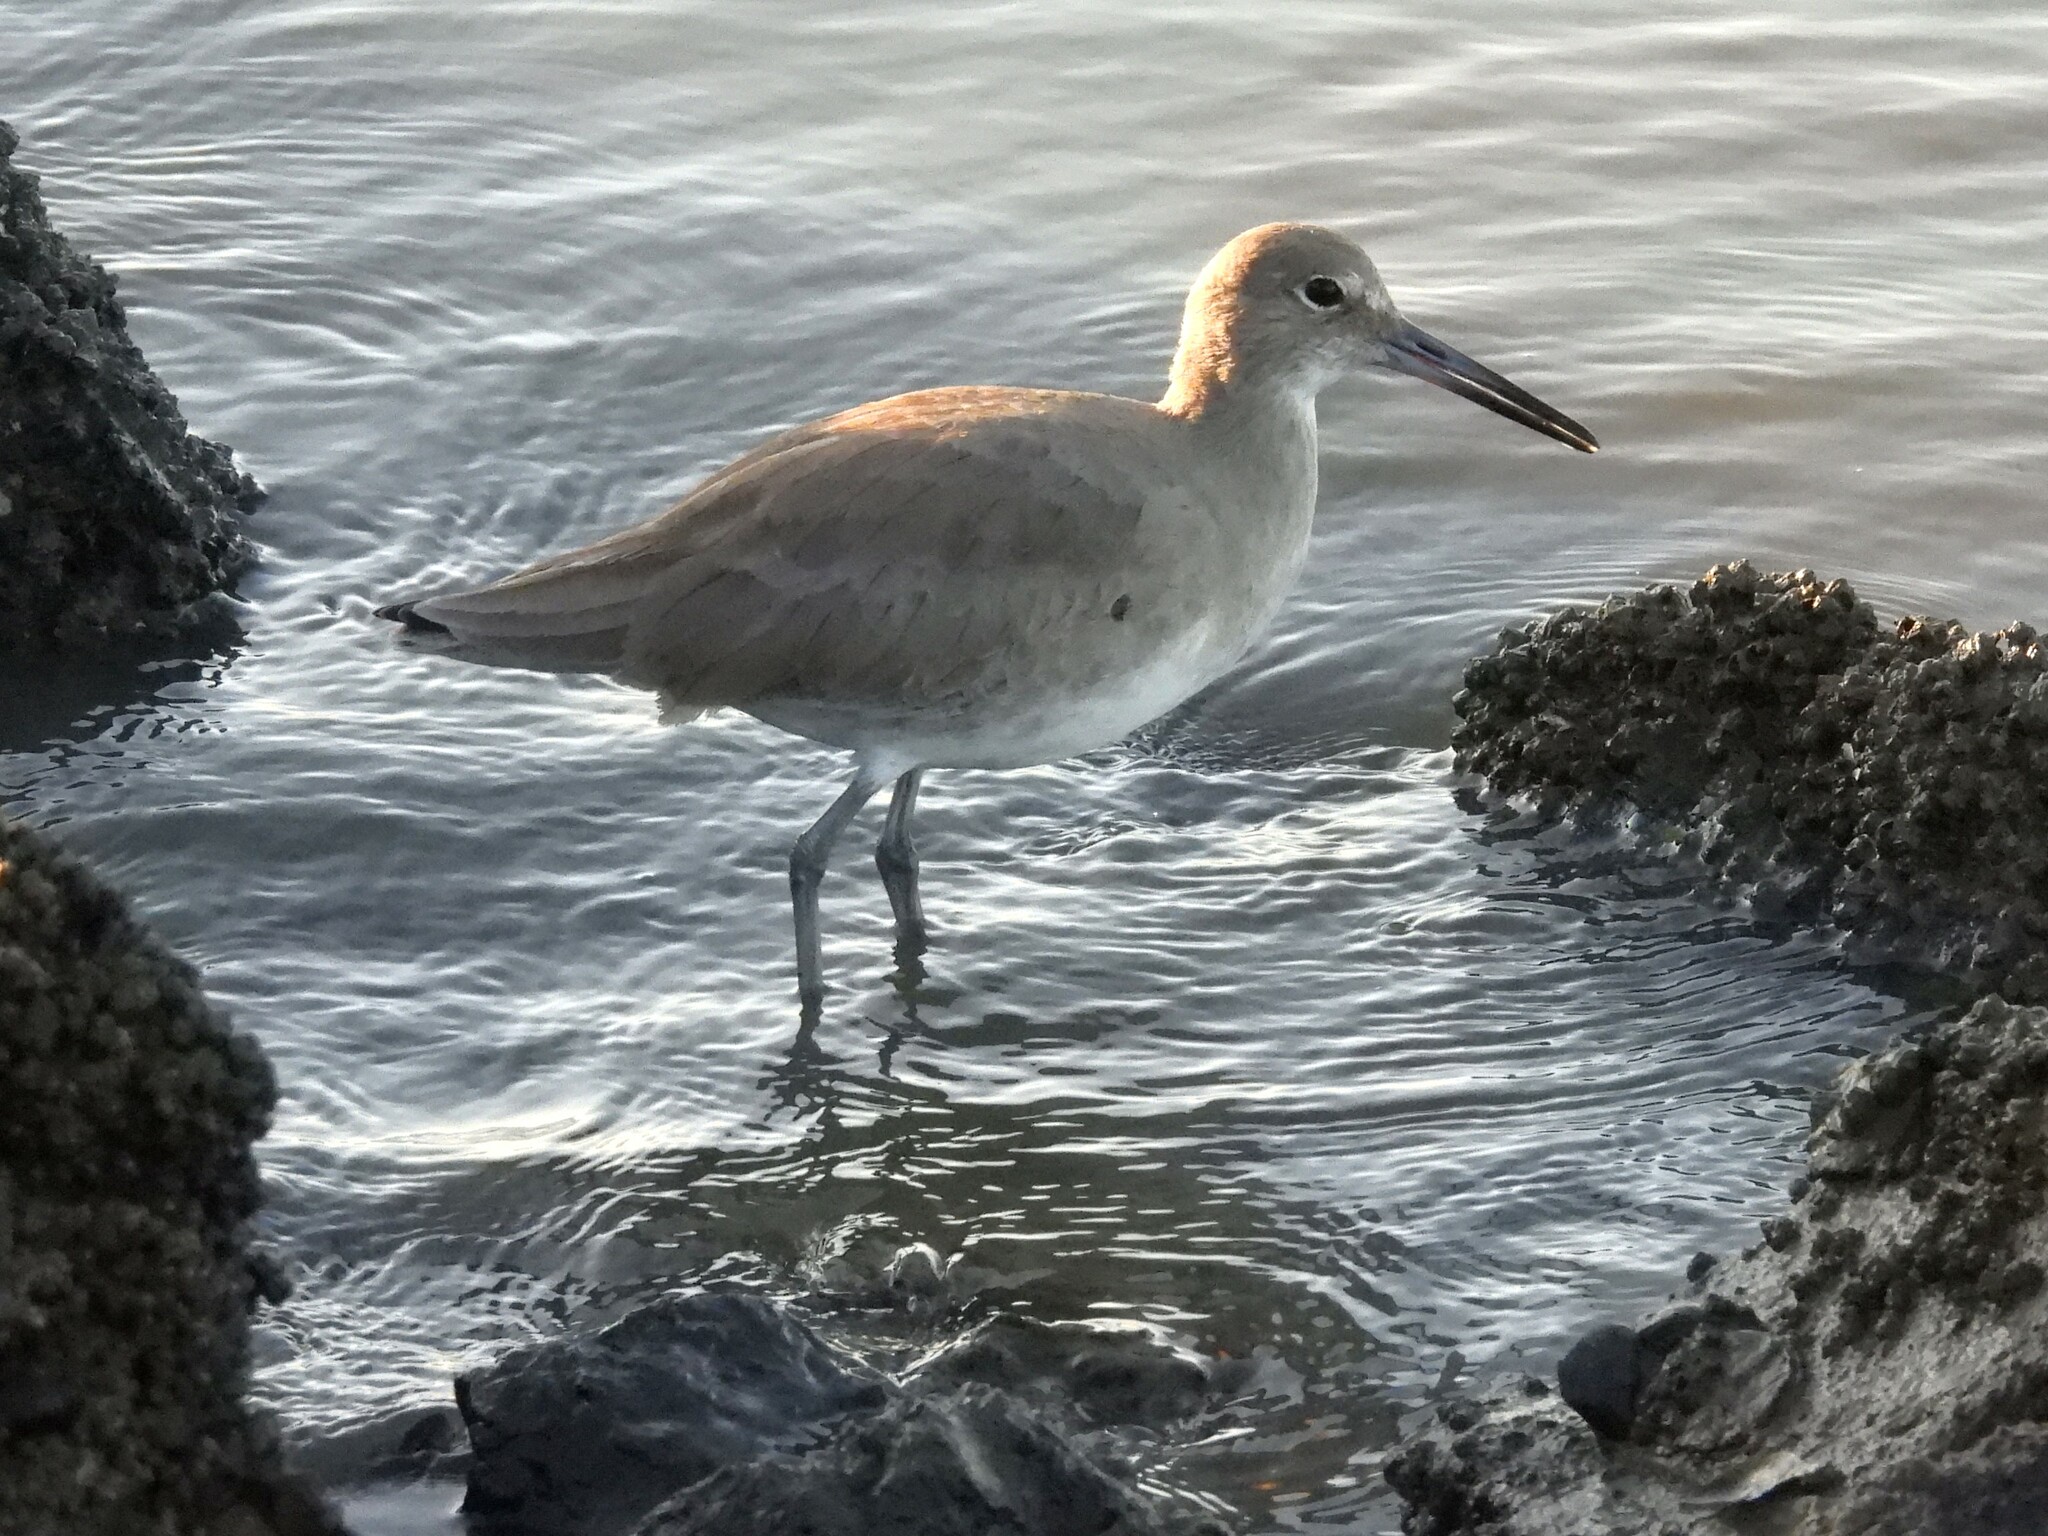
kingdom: Animalia
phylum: Chordata
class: Aves
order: Charadriiformes
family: Scolopacidae
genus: Tringa
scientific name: Tringa semipalmata
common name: Willet
